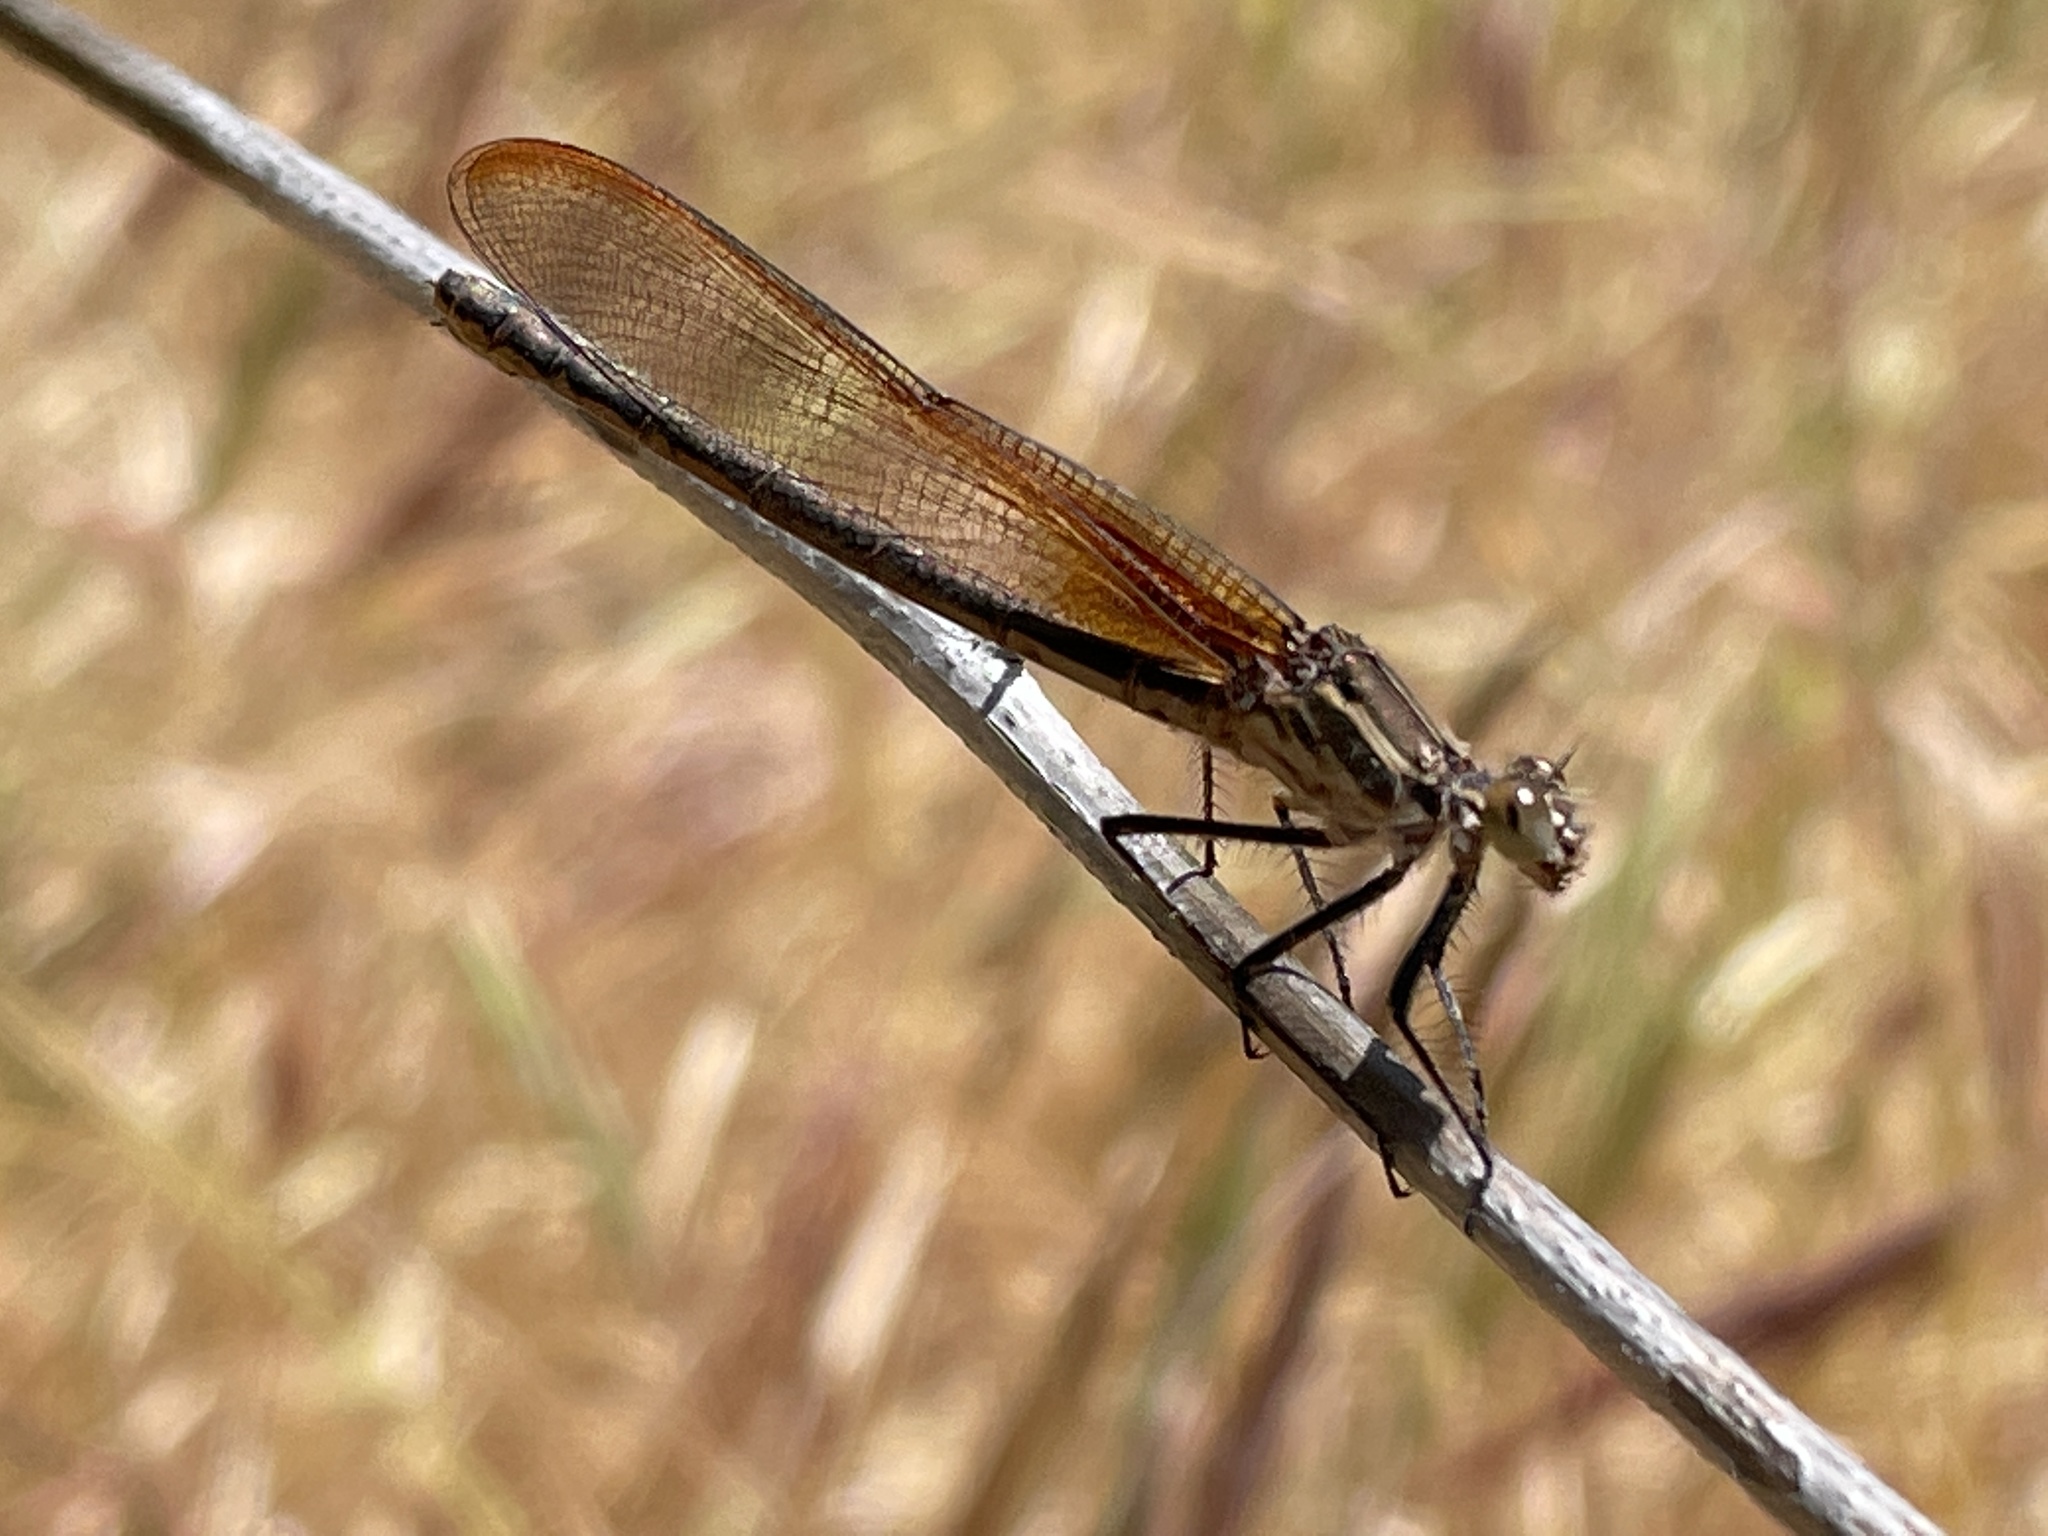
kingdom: Animalia
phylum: Arthropoda
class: Insecta
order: Odonata
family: Calopterygidae
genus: Hetaerina
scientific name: Hetaerina americana
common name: American rubyspot
